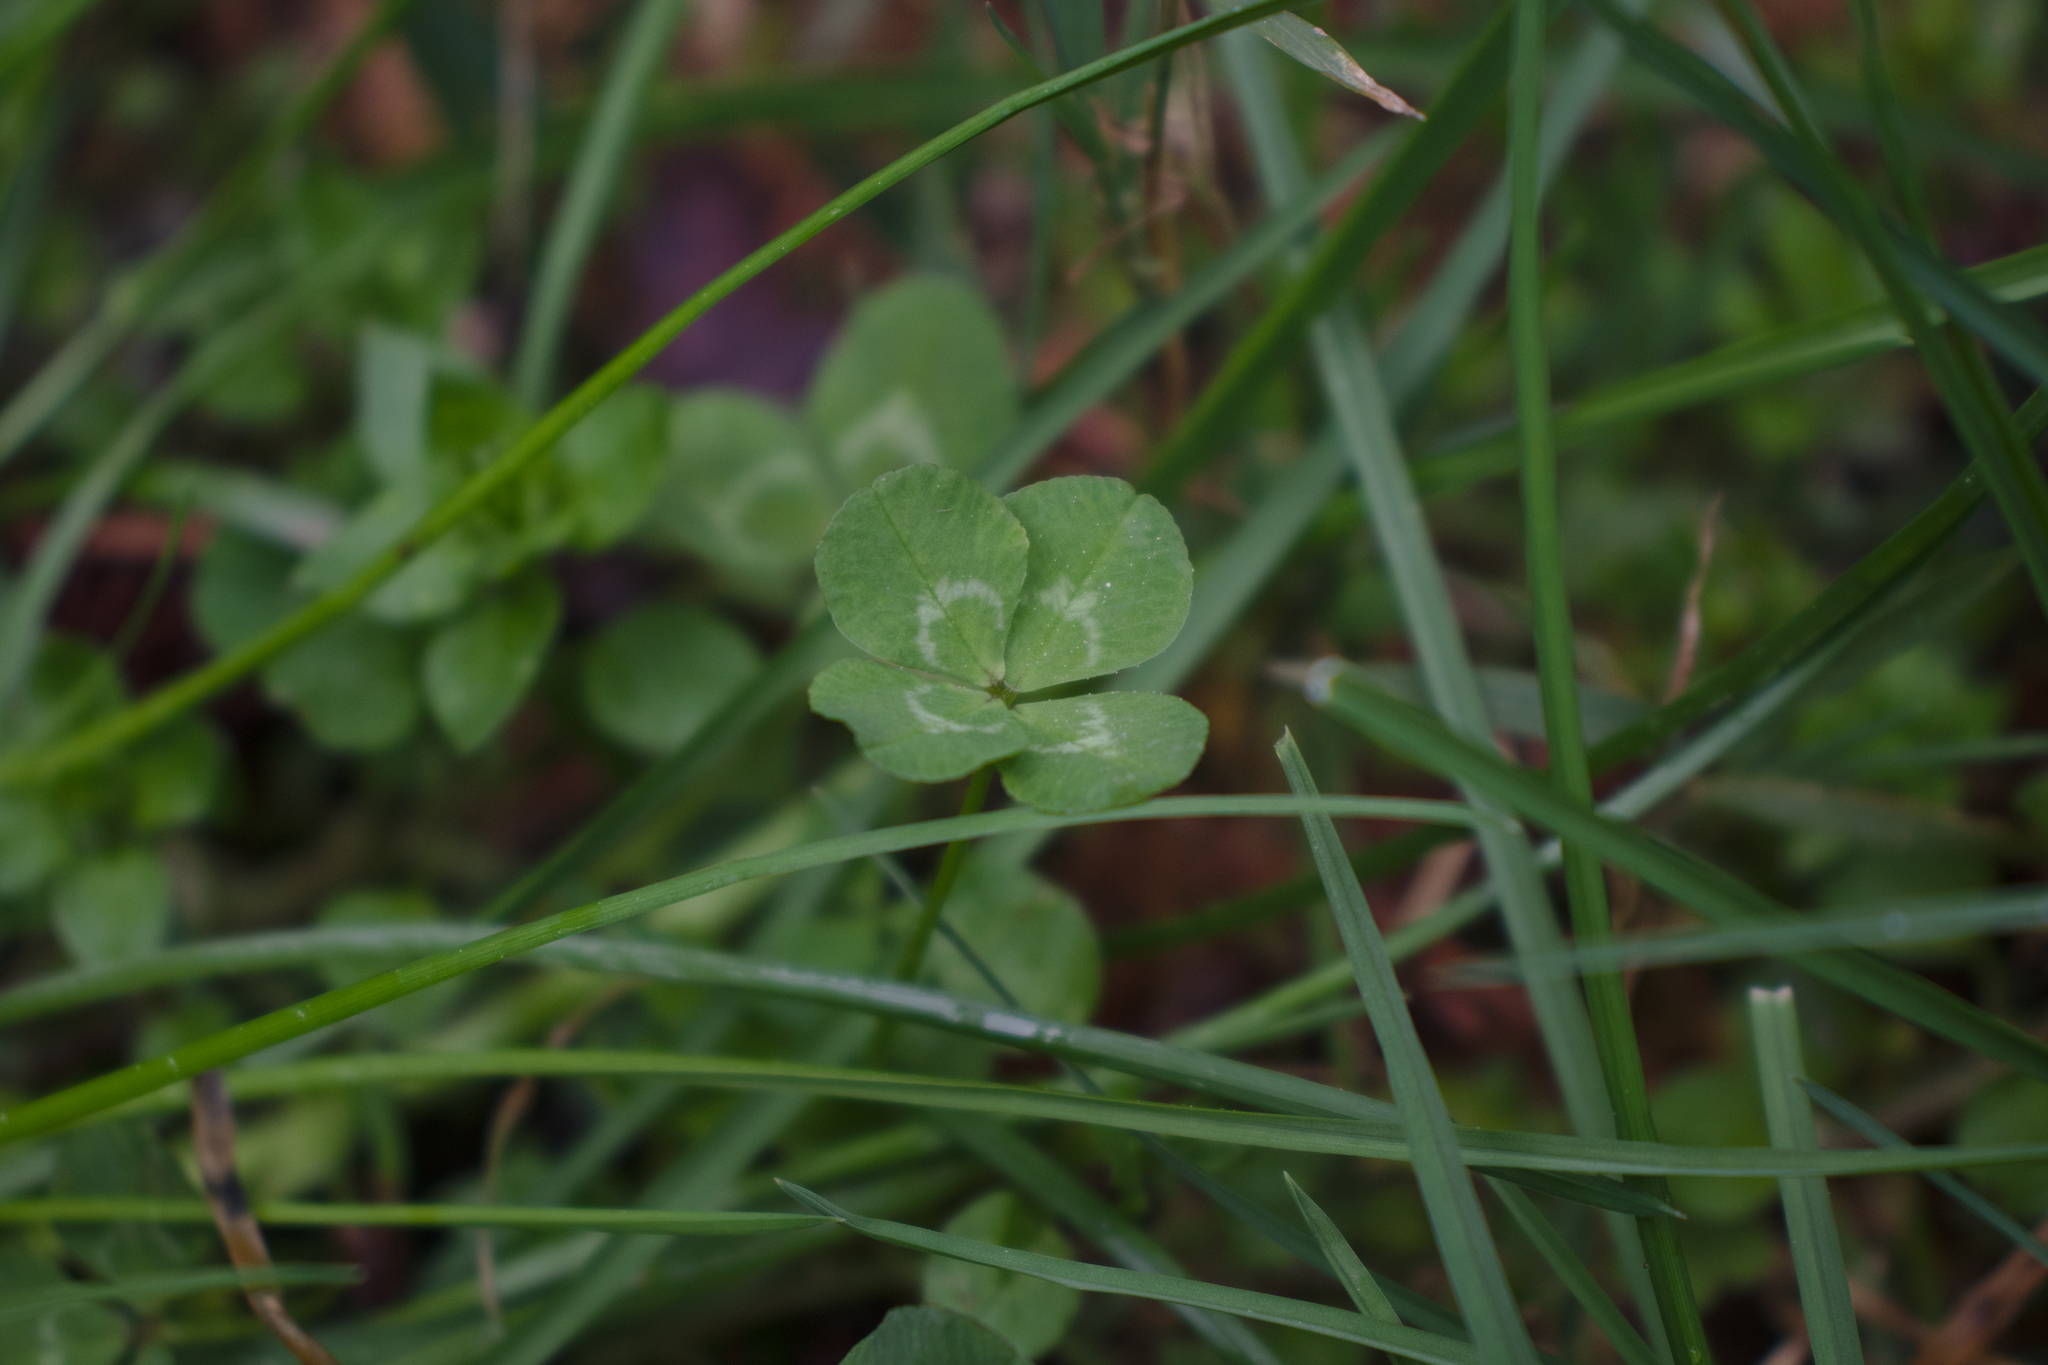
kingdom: Plantae
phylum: Tracheophyta
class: Magnoliopsida
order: Fabales
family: Fabaceae
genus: Trifolium
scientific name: Trifolium repens
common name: White clover
